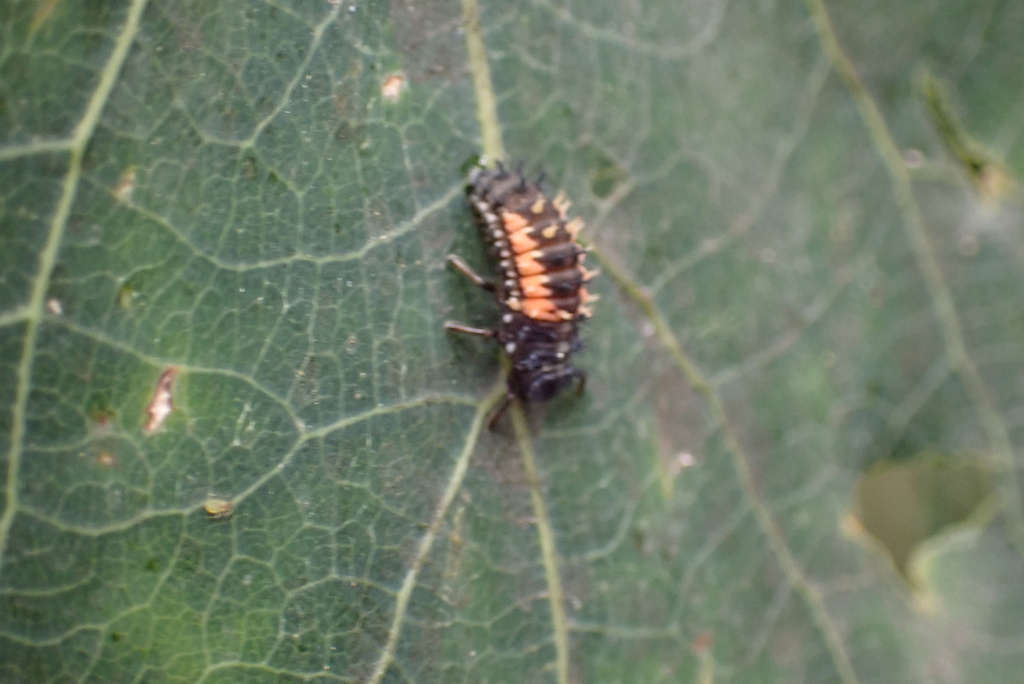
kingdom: Animalia
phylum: Arthropoda
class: Insecta
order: Coleoptera
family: Coccinellidae
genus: Harmonia
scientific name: Harmonia axyridis
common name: Harlequin ladybird
